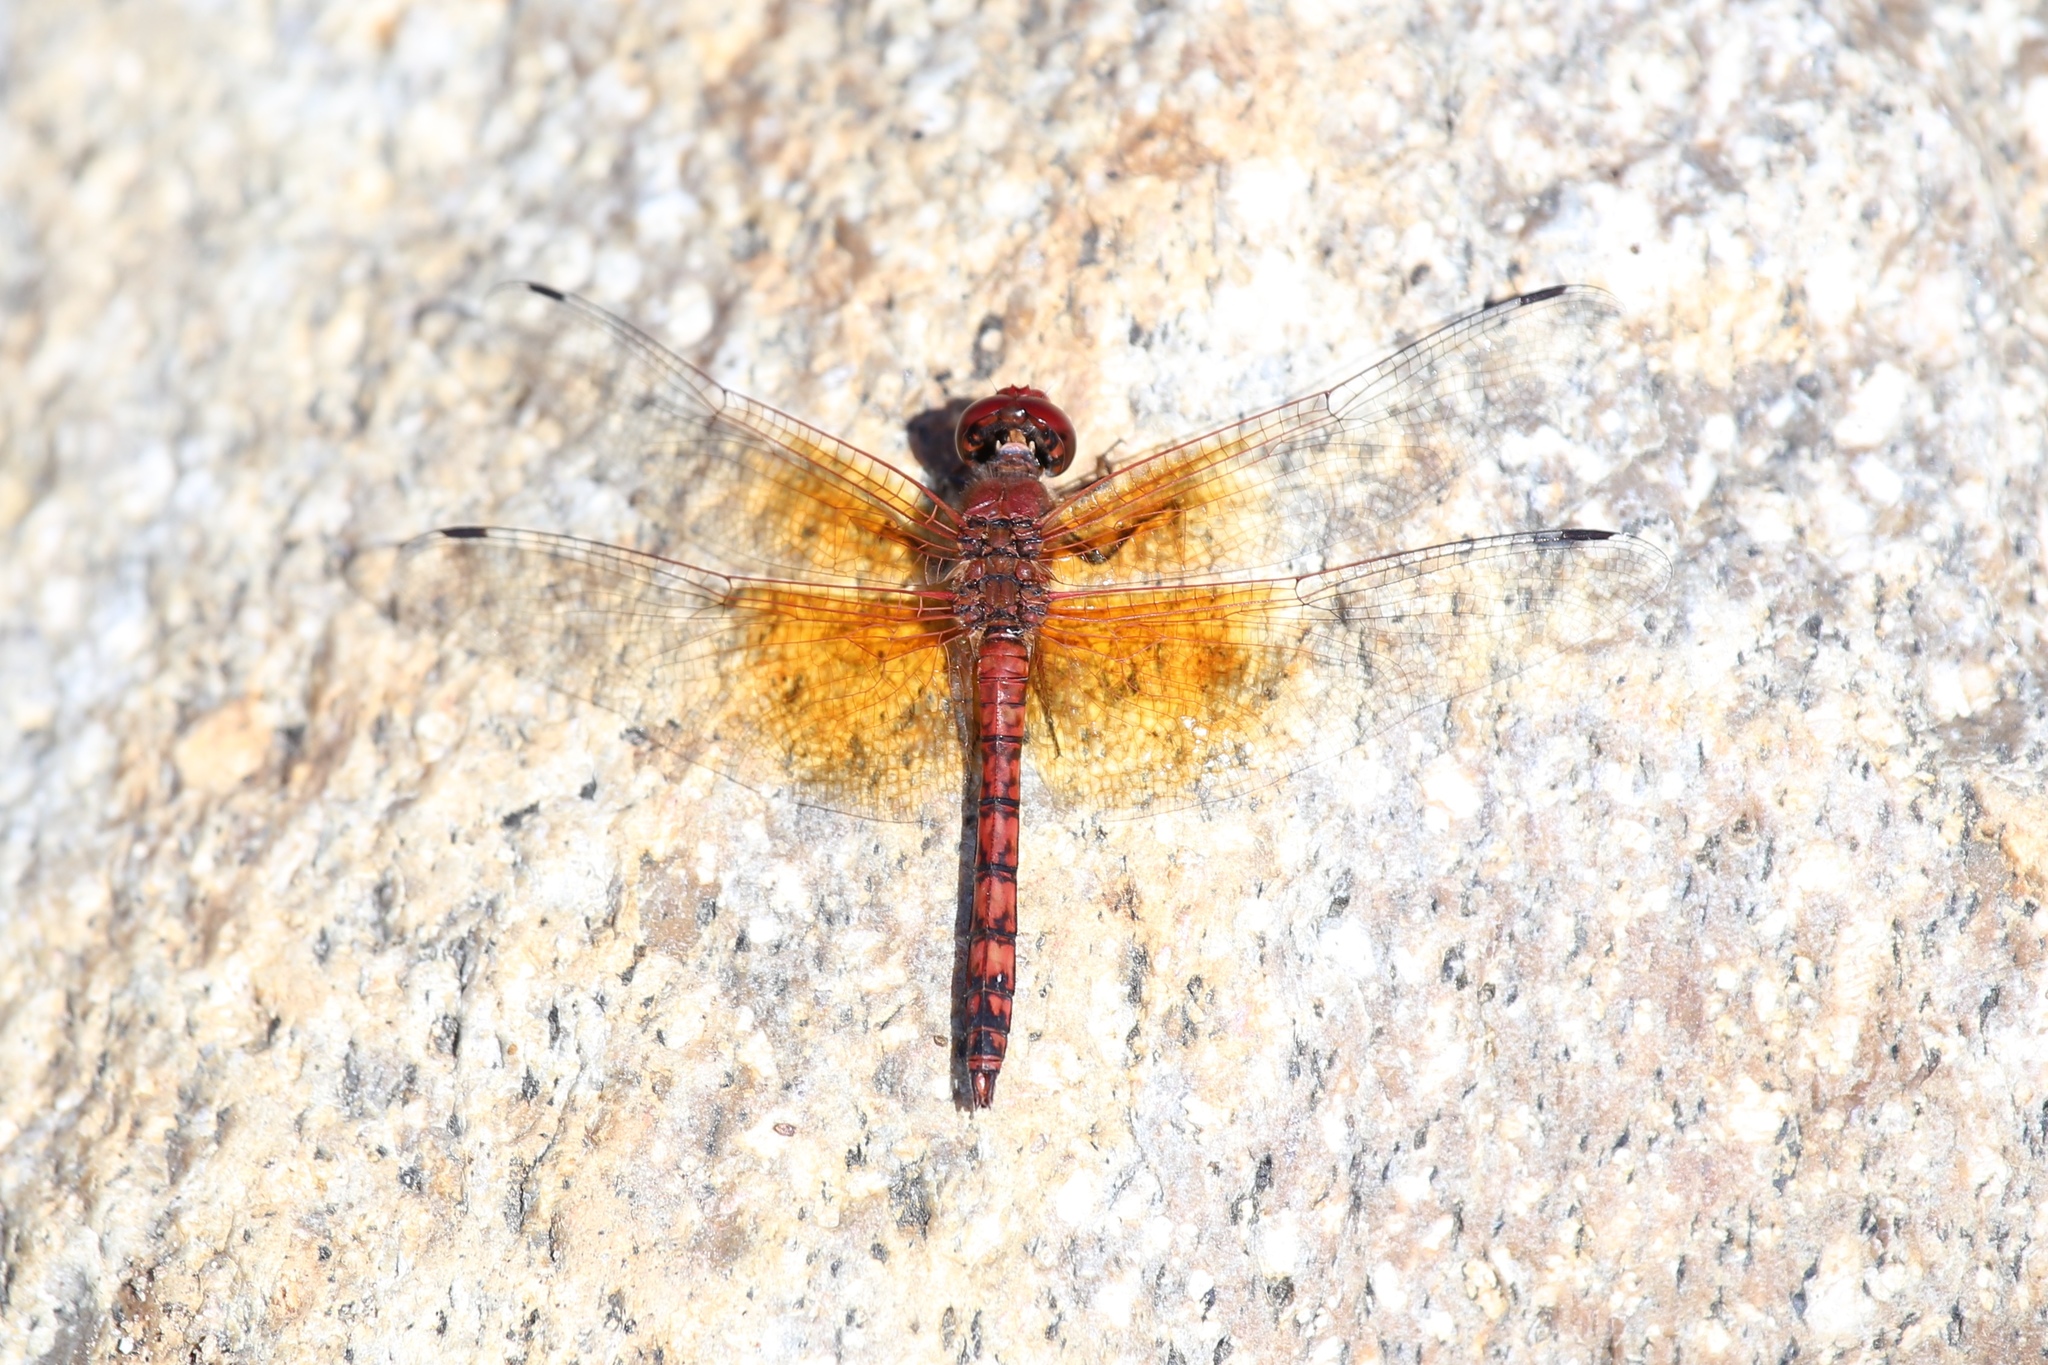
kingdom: Animalia
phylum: Arthropoda
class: Insecta
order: Odonata
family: Libellulidae
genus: Paltothemis
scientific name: Paltothemis lineatipes
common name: Red rock skimmer
